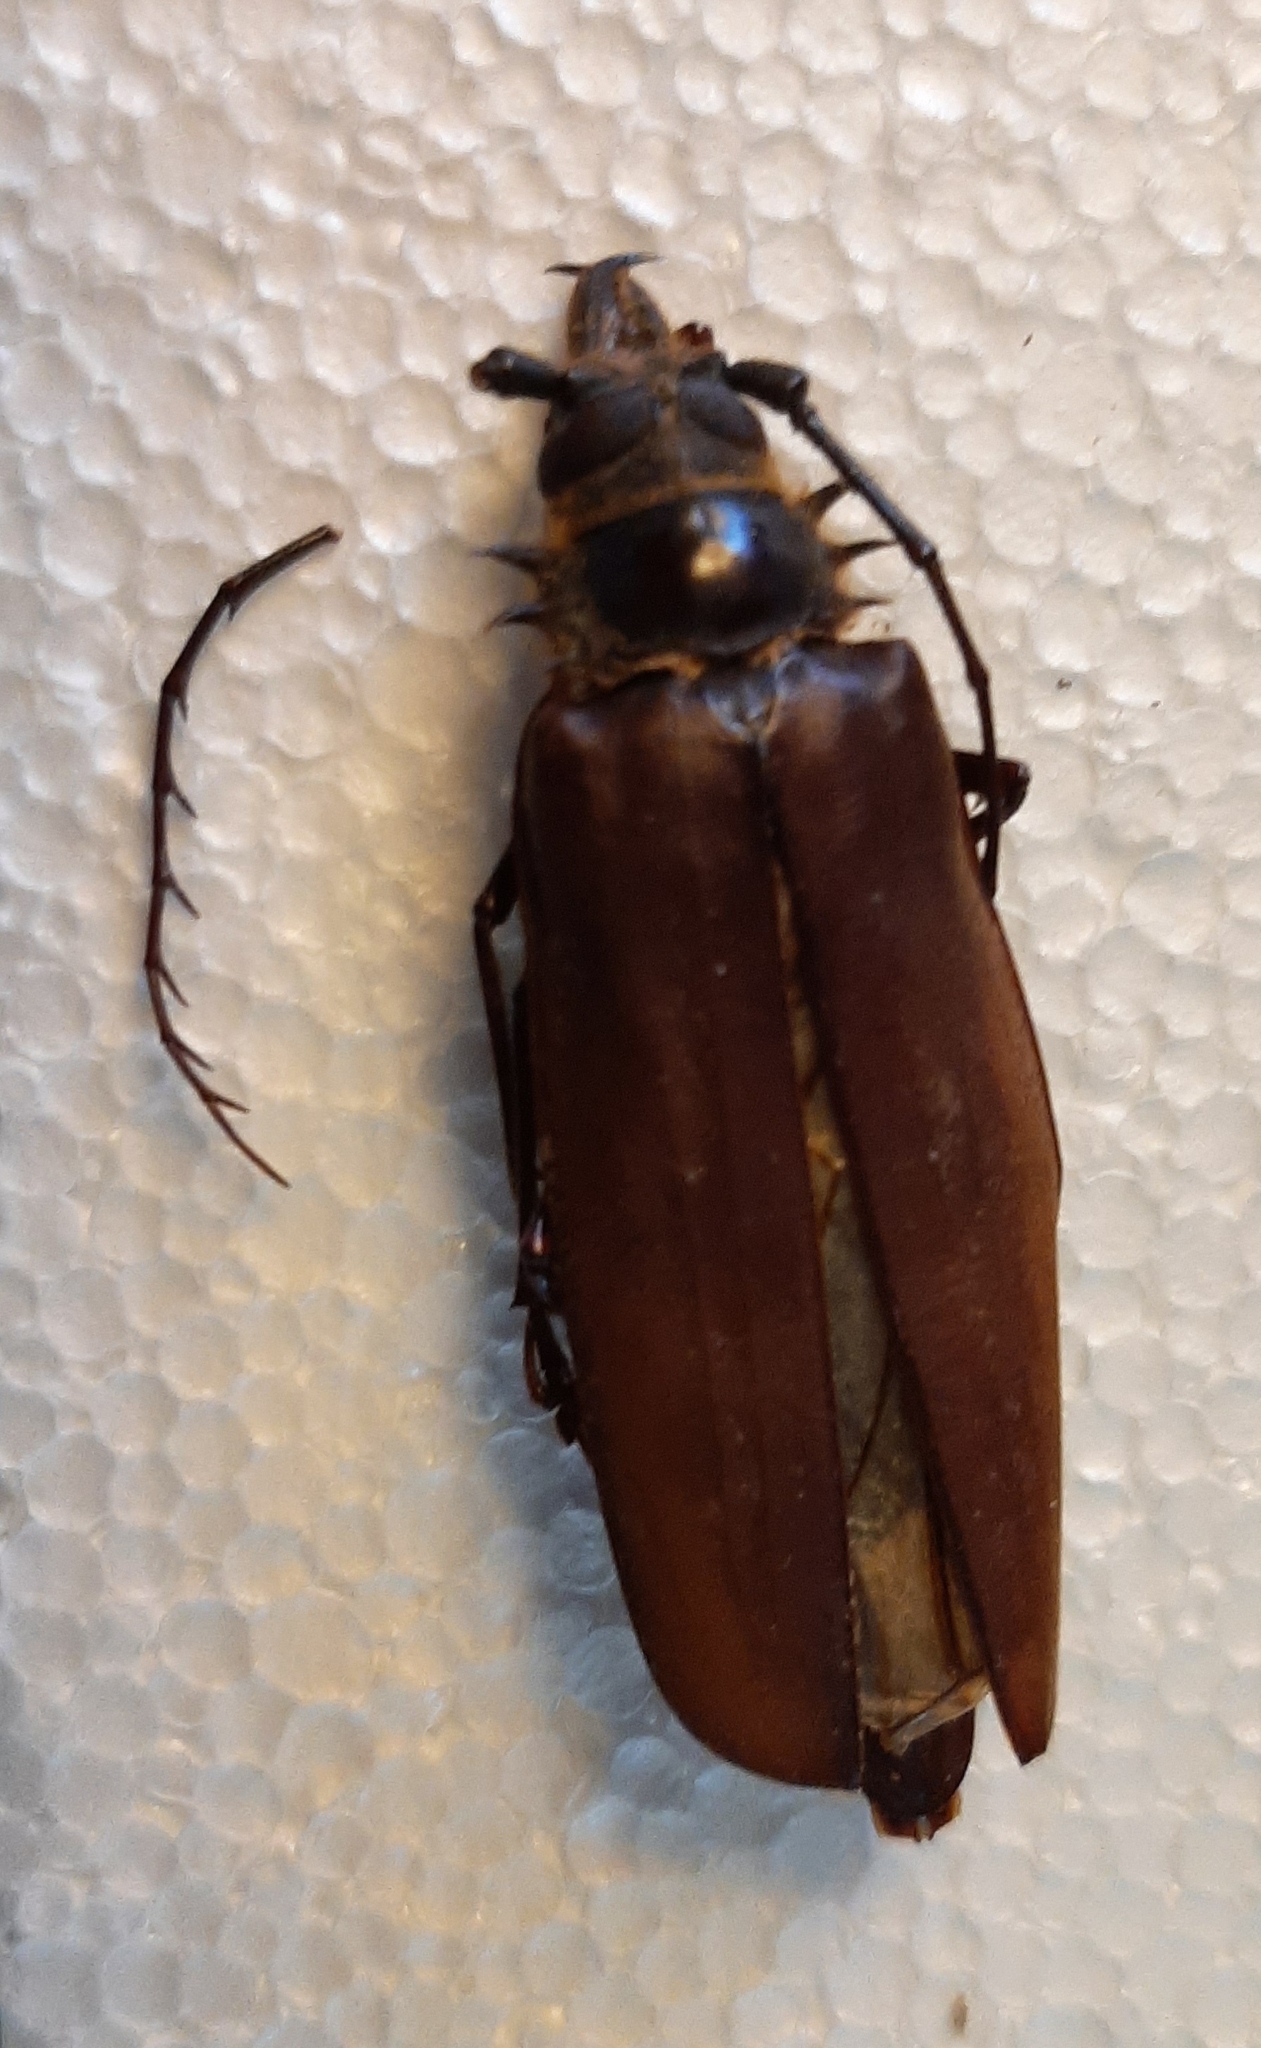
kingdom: Animalia
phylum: Arthropoda
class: Insecta
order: Coleoptera
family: Cerambycidae
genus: Ceratocentrus
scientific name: Ceratocentrus spinicornis
